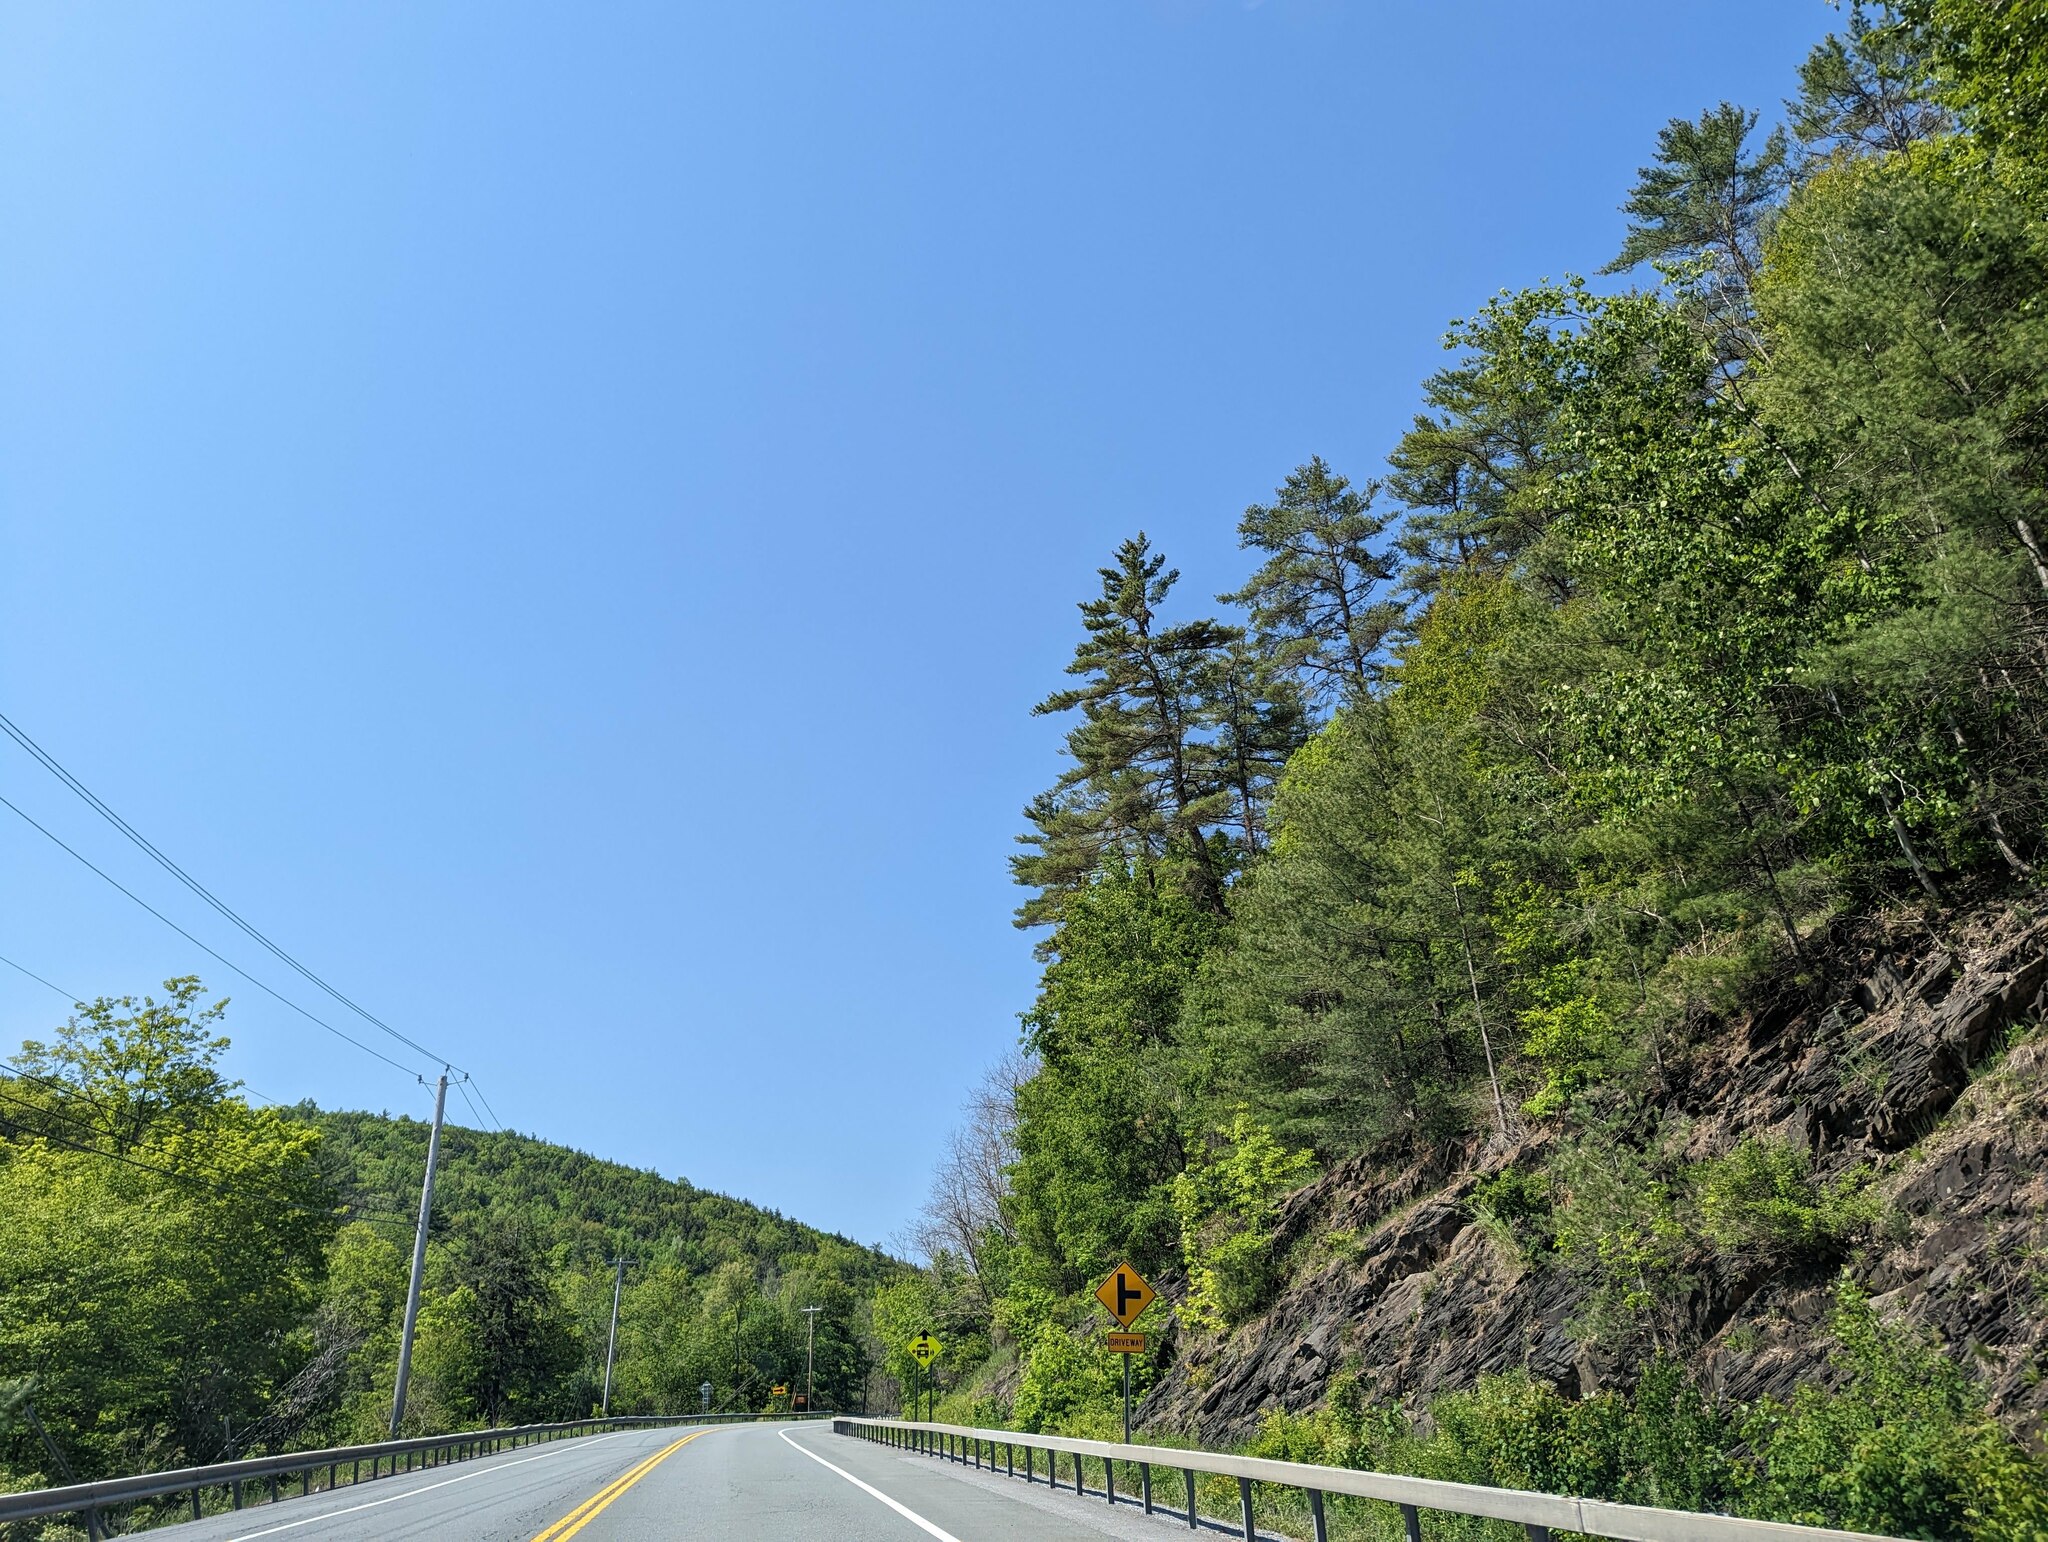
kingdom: Plantae
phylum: Tracheophyta
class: Pinopsida
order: Pinales
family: Pinaceae
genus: Pinus
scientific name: Pinus strobus
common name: Weymouth pine
